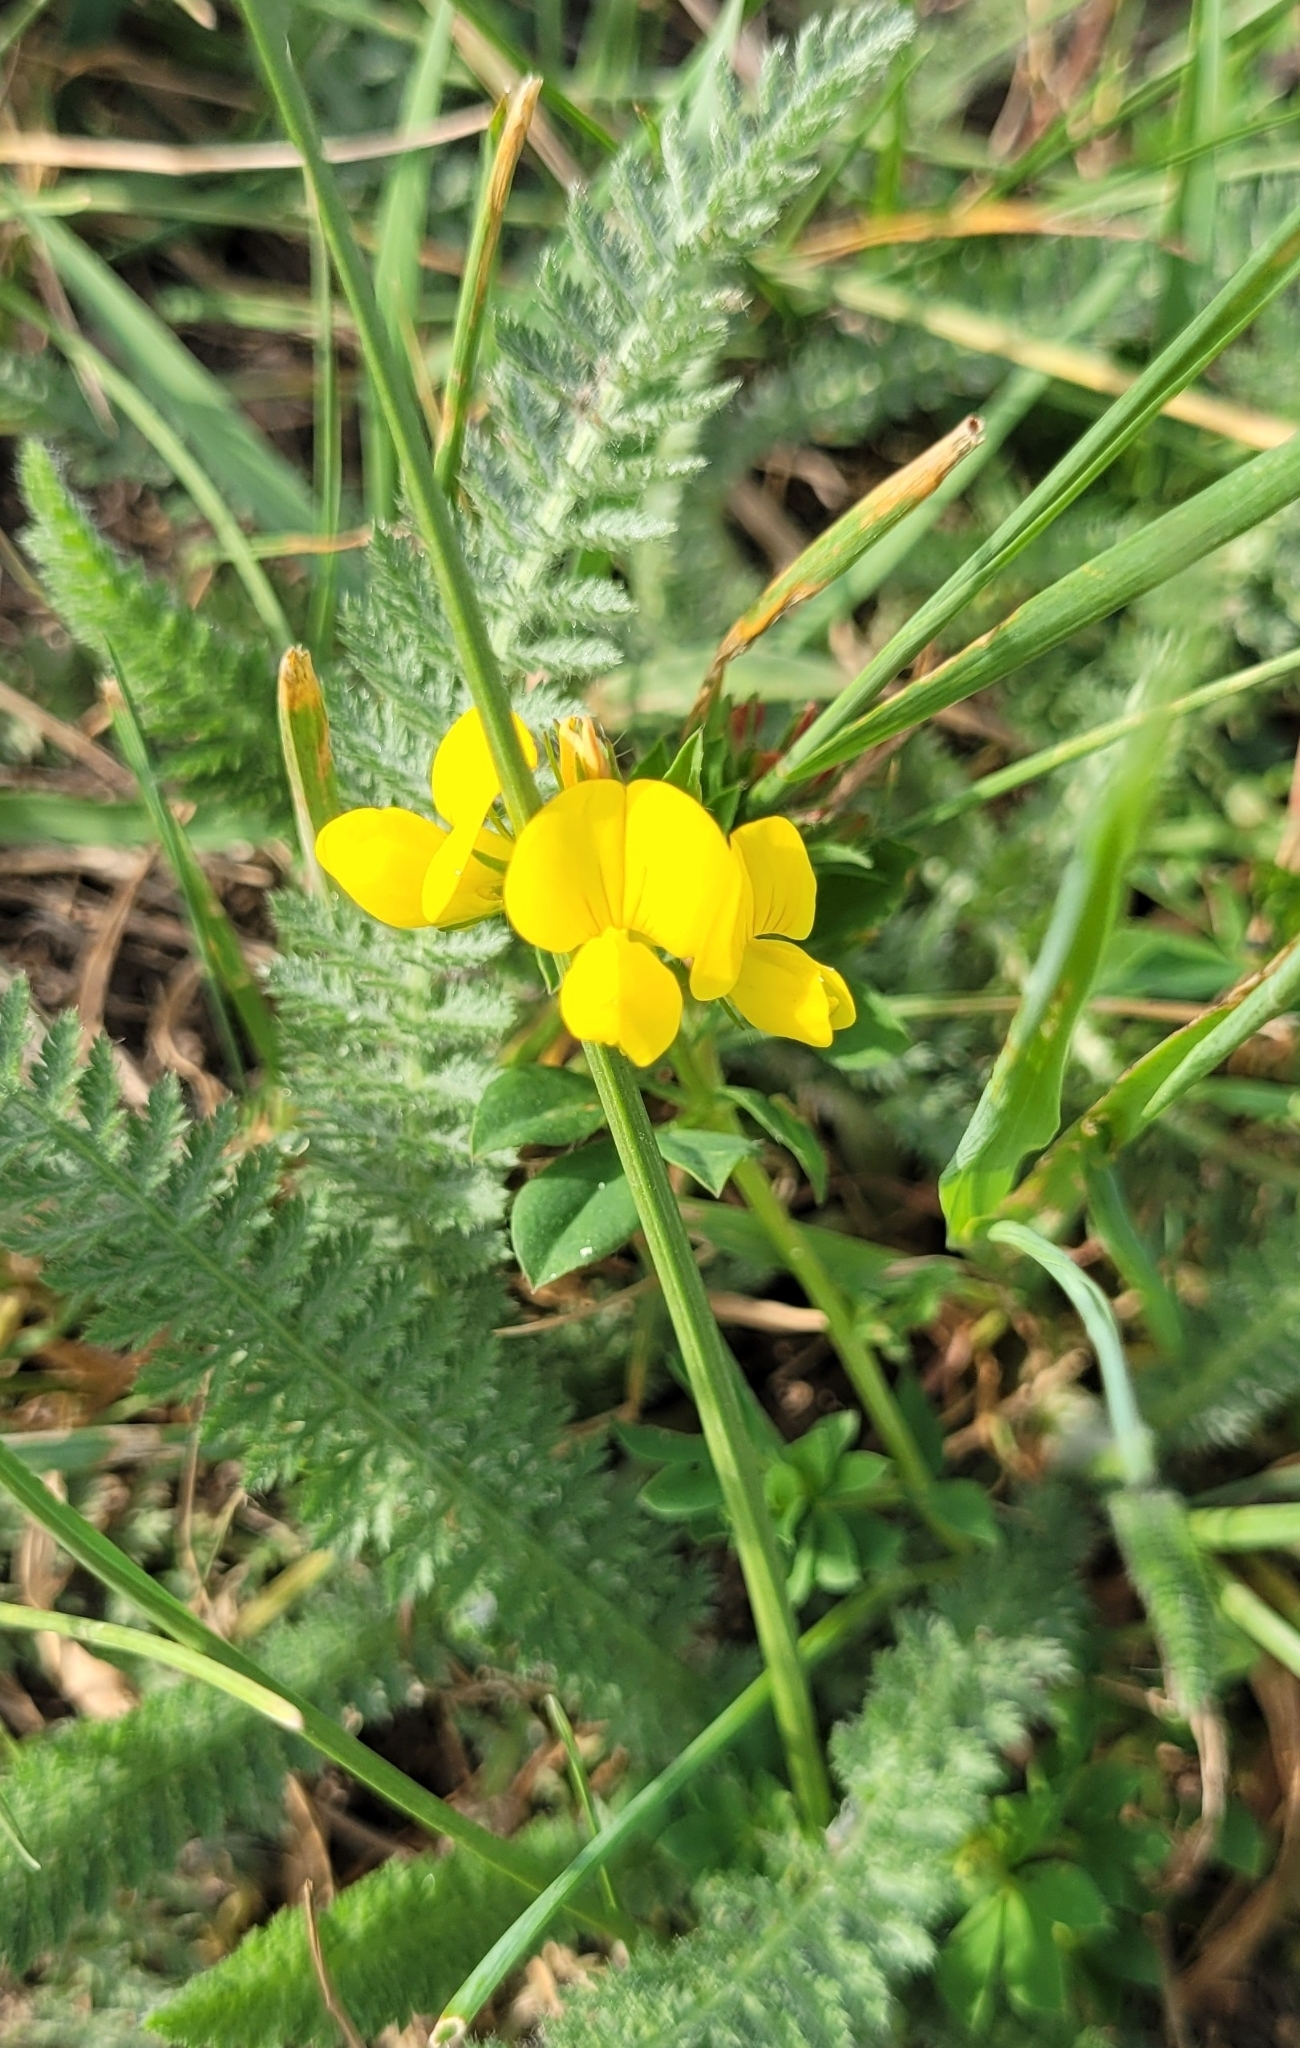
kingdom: Plantae
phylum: Tracheophyta
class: Magnoliopsida
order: Fabales
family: Fabaceae
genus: Lotus
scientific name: Lotus corniculatus
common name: Common bird's-foot-trefoil
